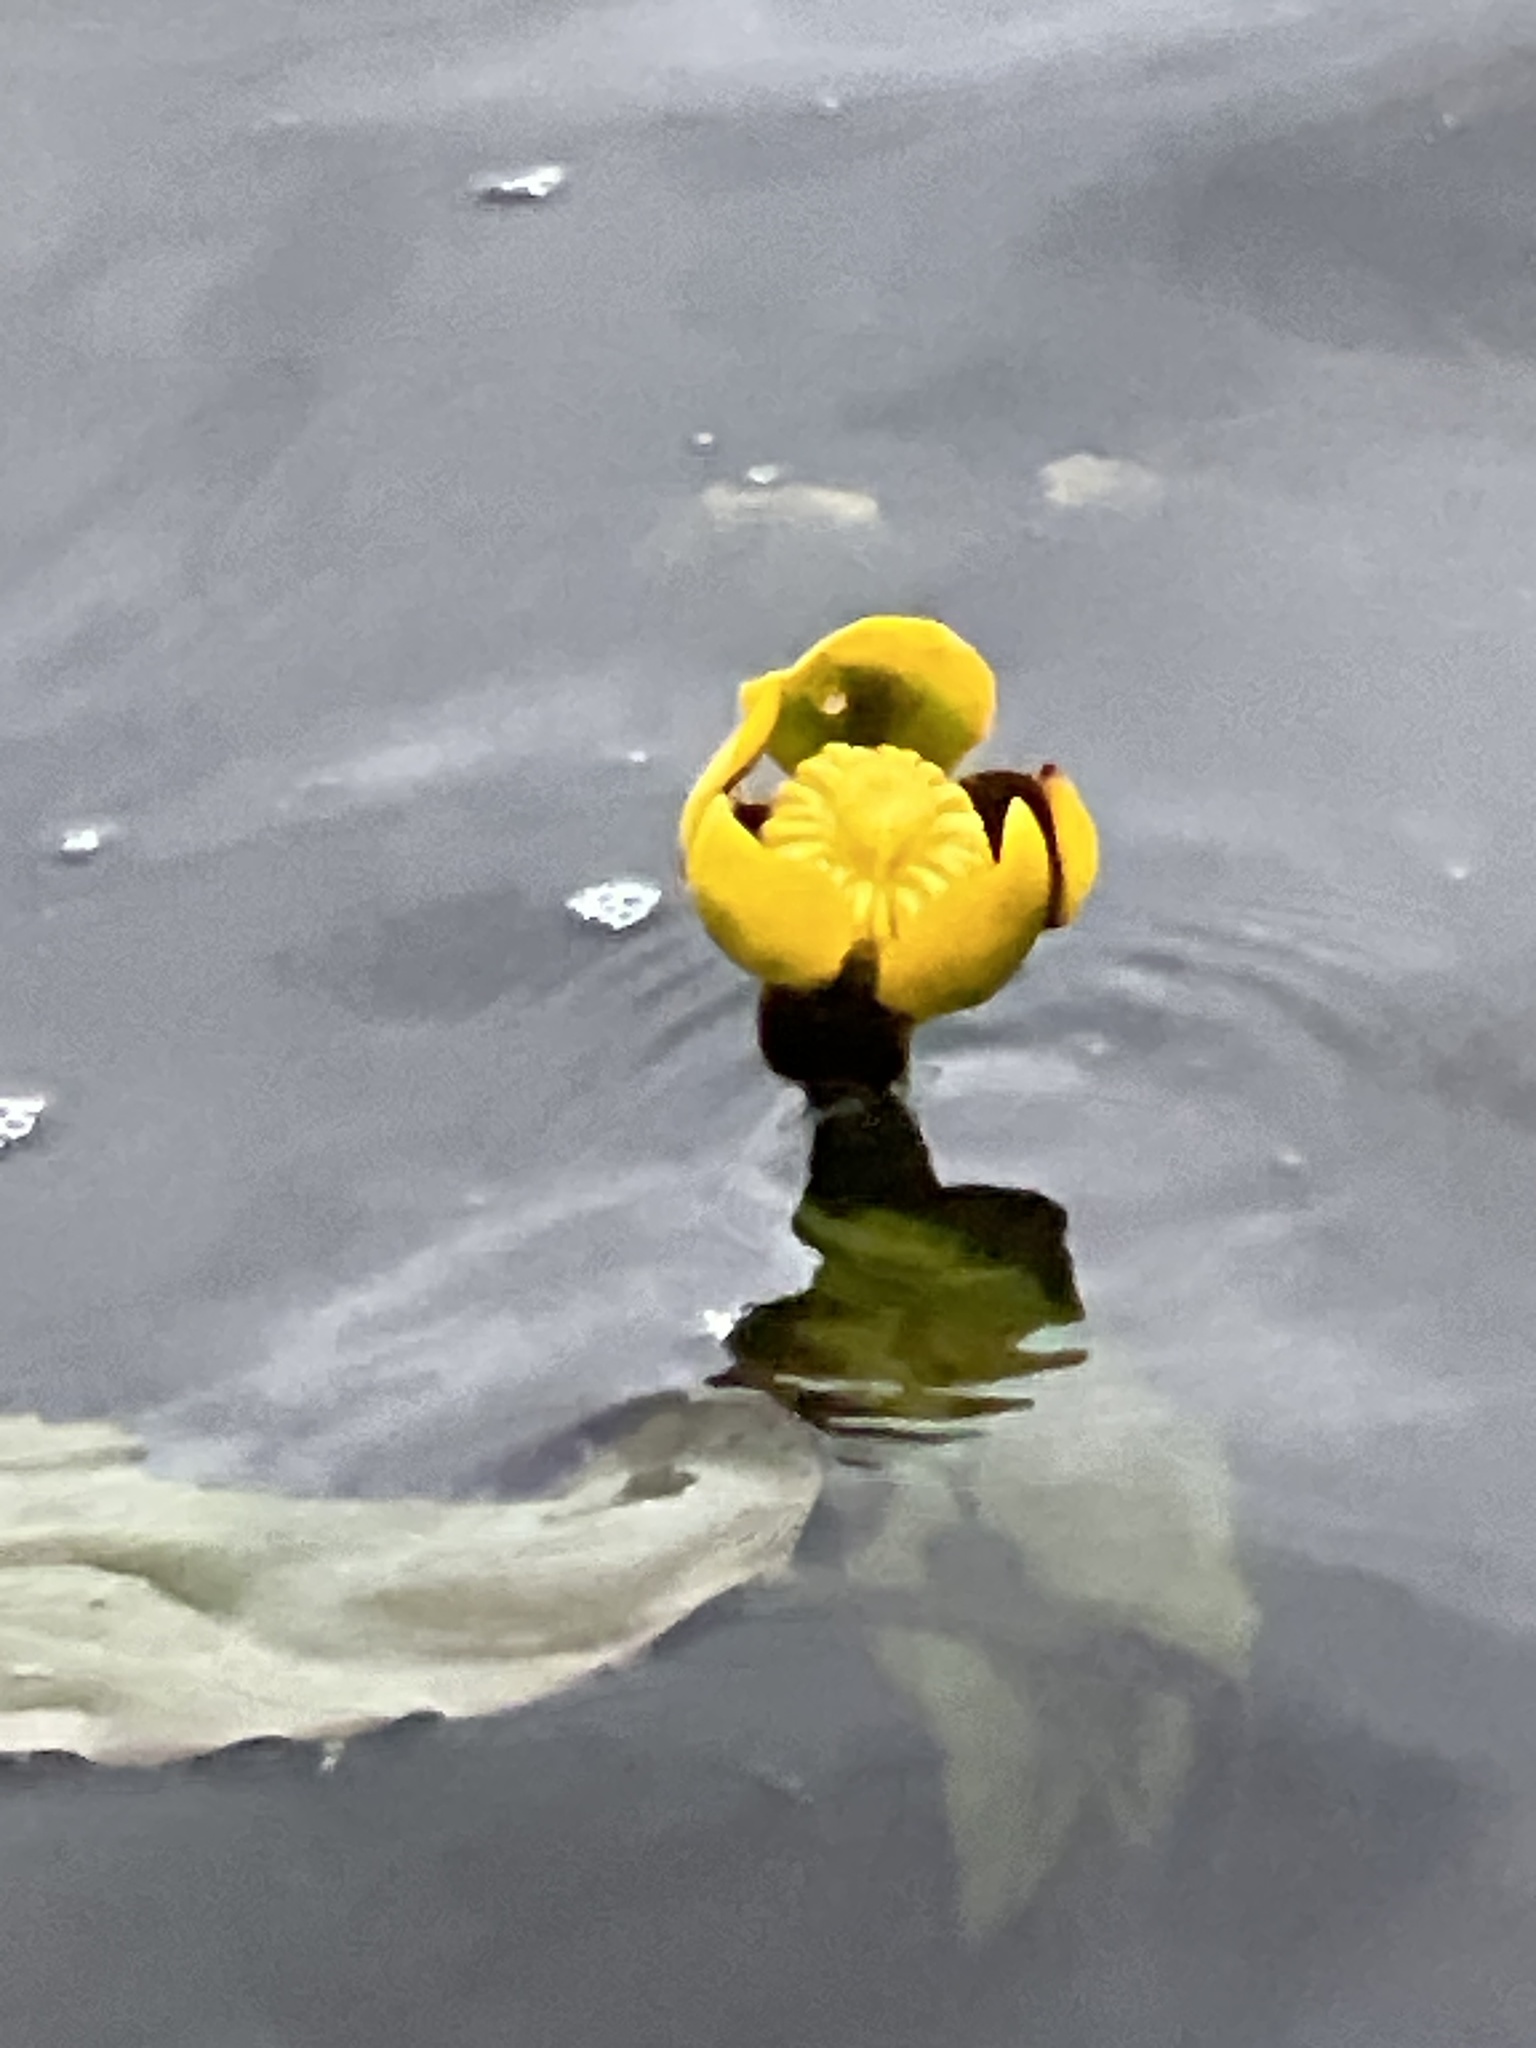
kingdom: Plantae
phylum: Tracheophyta
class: Magnoliopsida
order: Nymphaeales
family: Nymphaeaceae
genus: Nuphar
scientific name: Nuphar variegata
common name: Beaver-root
